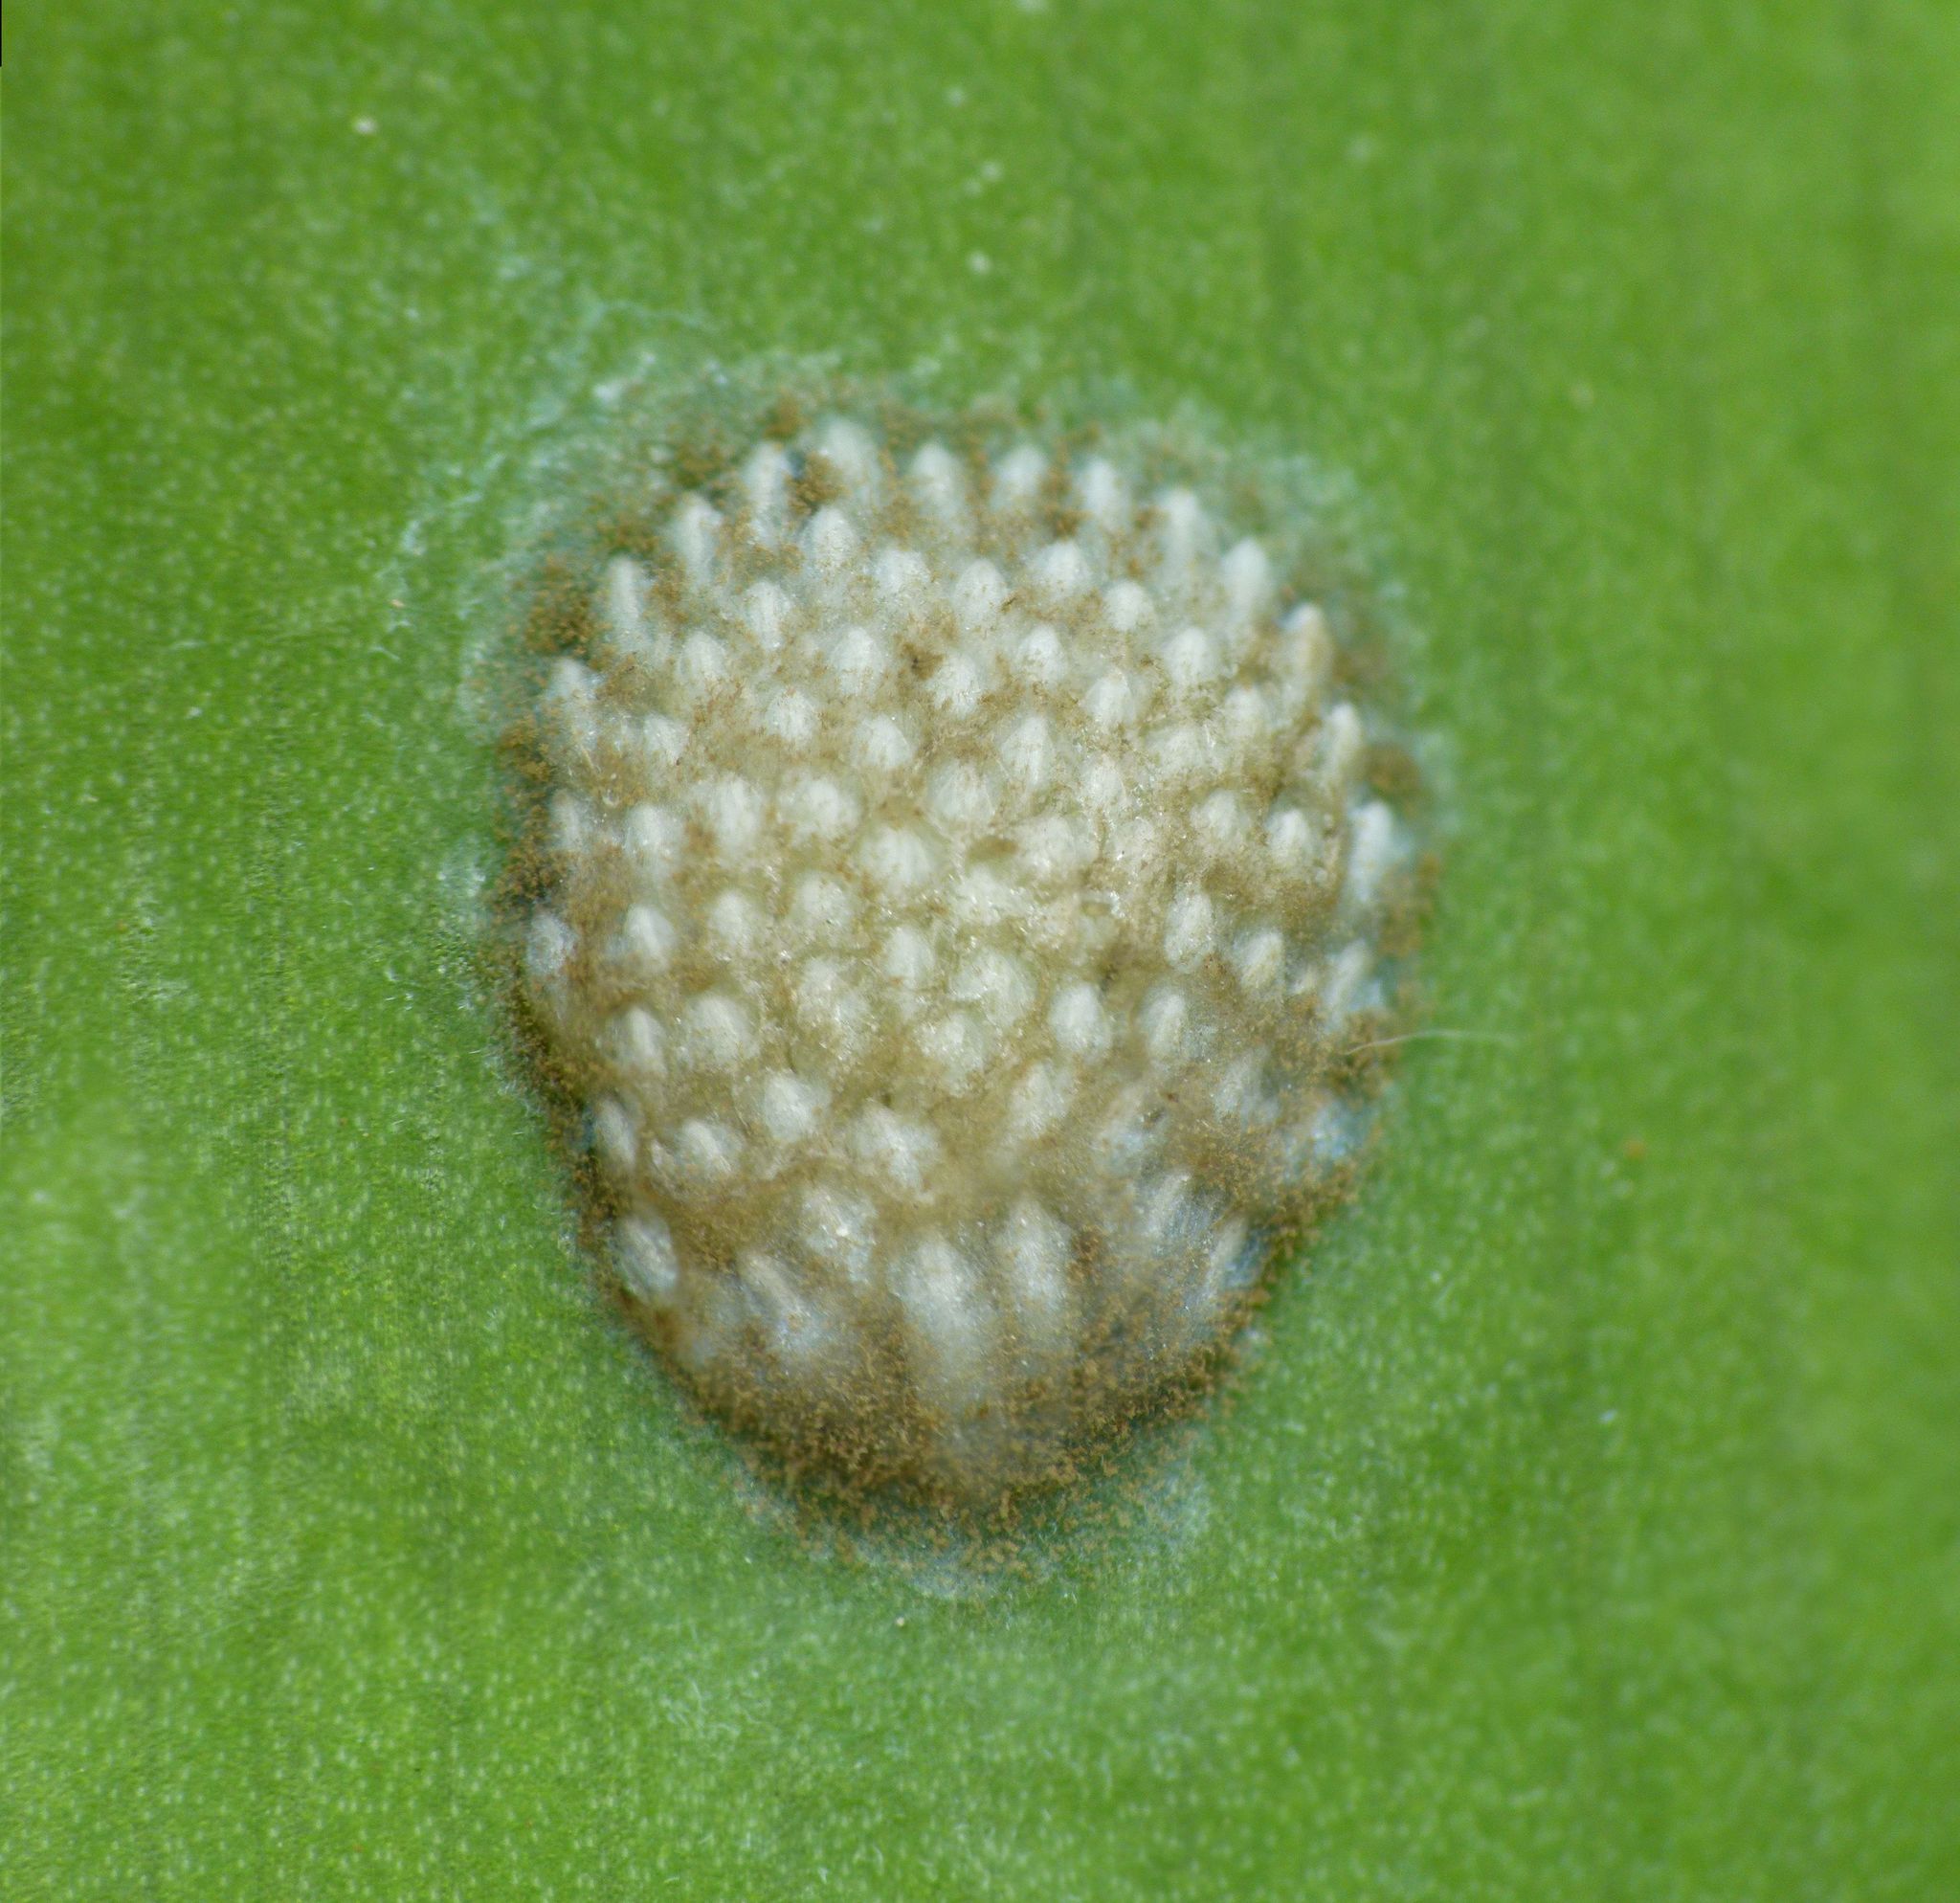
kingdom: Animalia
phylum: Arthropoda
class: Insecta
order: Hemiptera
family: Flatidae
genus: Siphanta
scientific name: Siphanta acuta
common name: Torpedo bug
